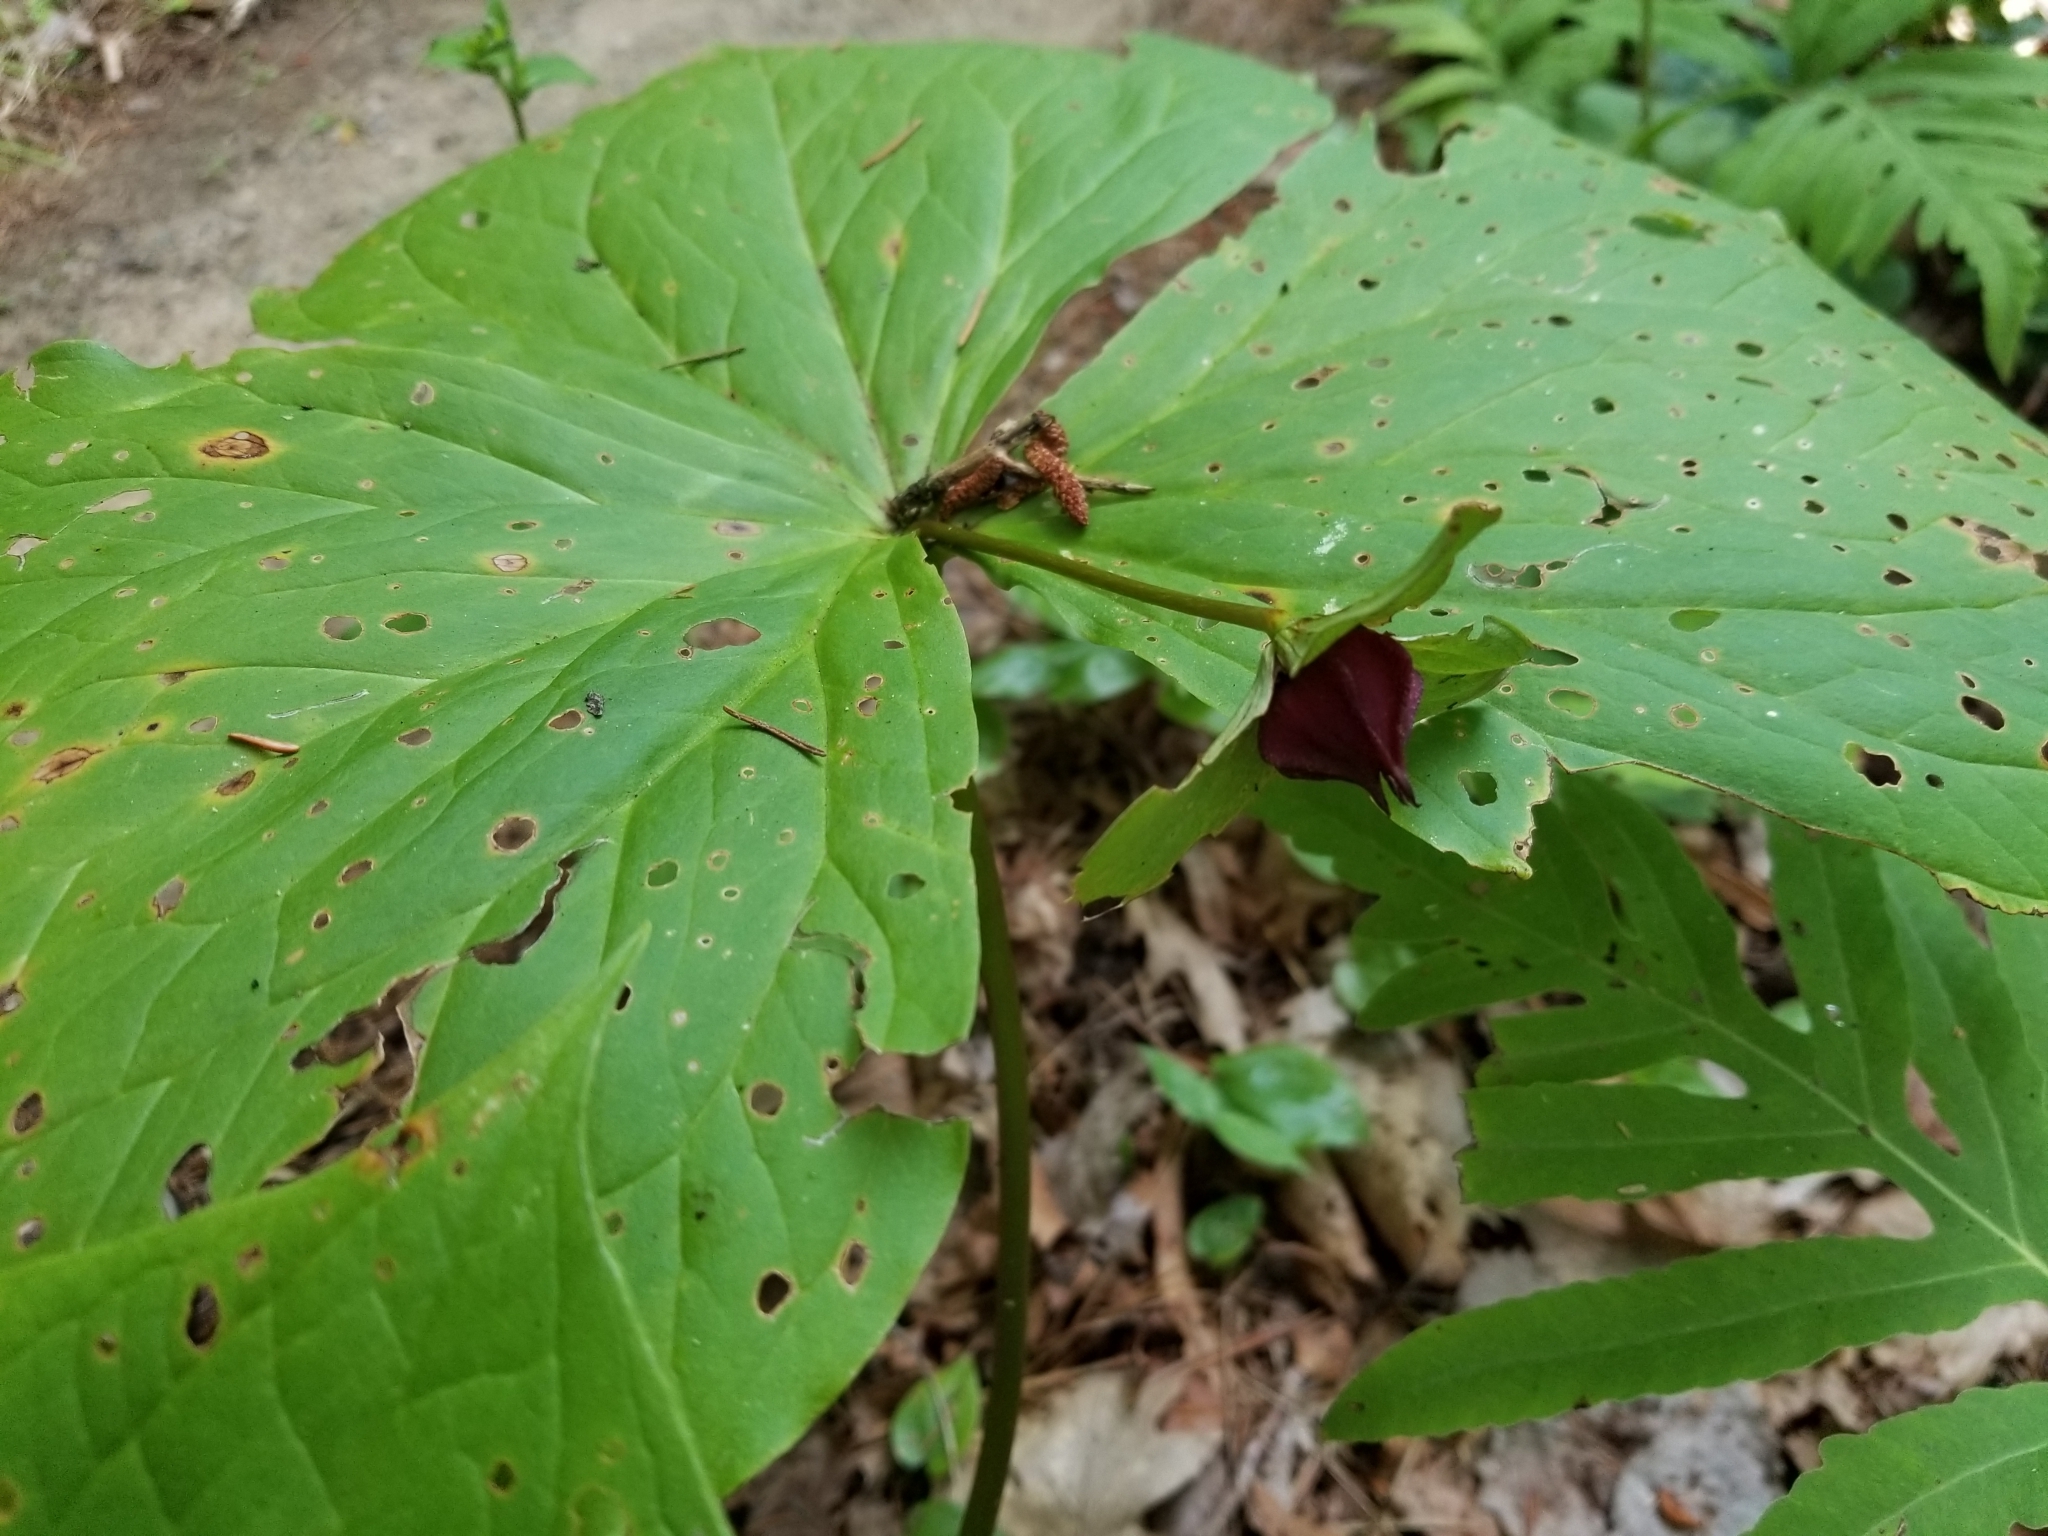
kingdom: Plantae
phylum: Tracheophyta
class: Liliopsida
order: Liliales
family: Melanthiaceae
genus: Trillium
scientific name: Trillium erectum
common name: Purple trillium
